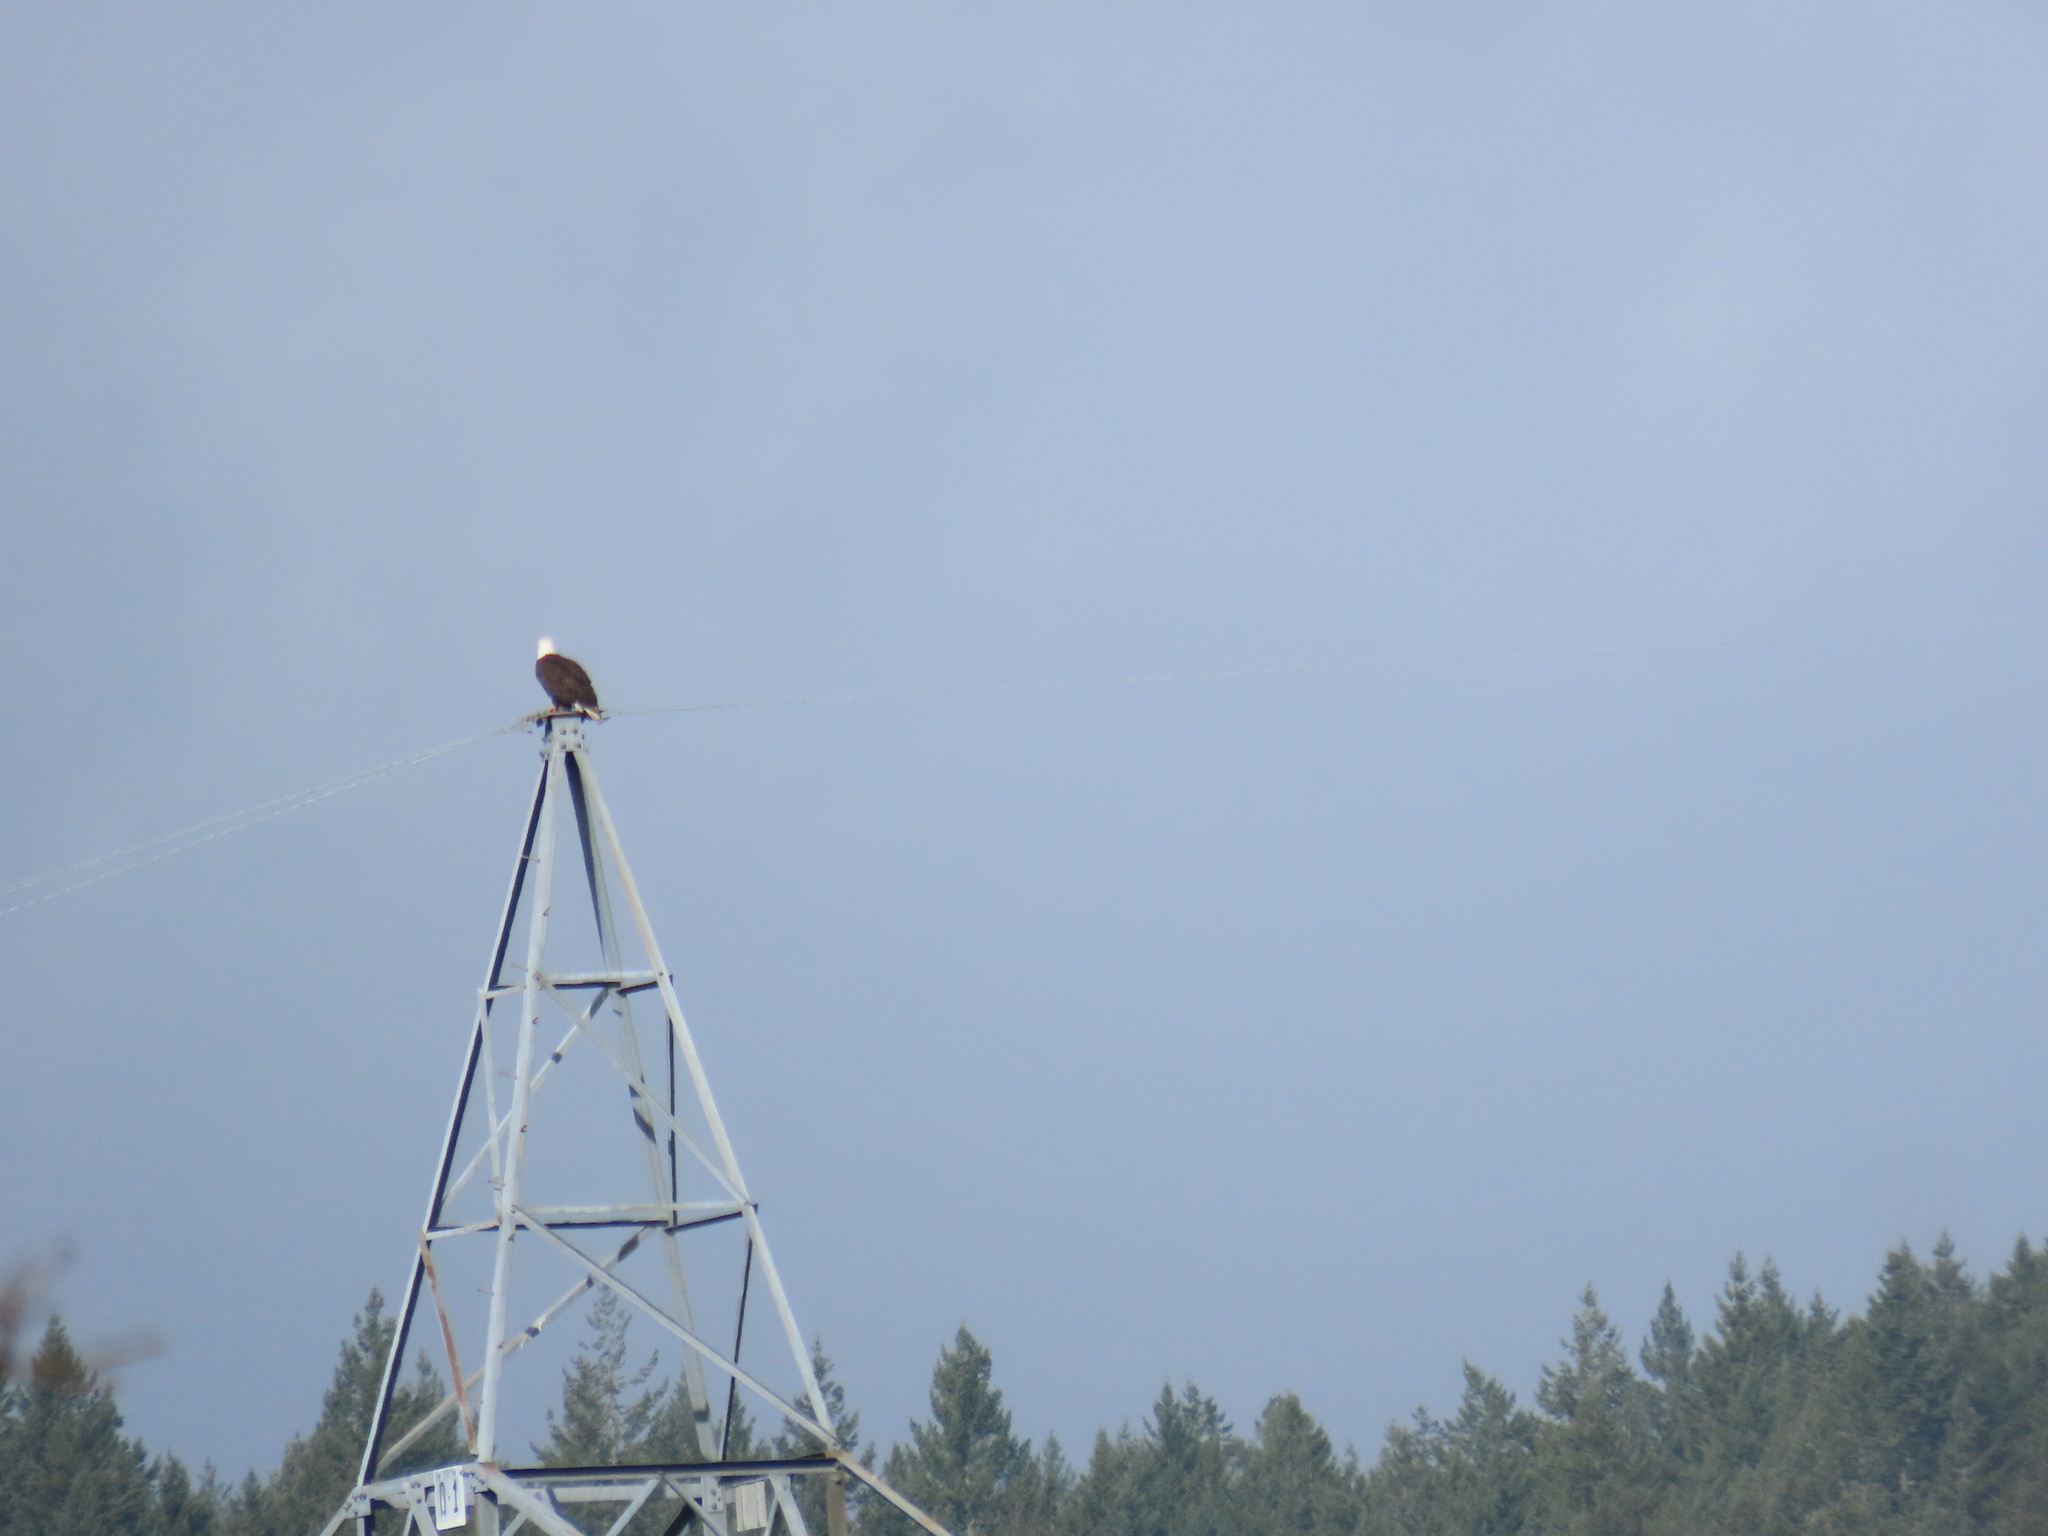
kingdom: Animalia
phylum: Chordata
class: Aves
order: Accipitriformes
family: Accipitridae
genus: Haliaeetus
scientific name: Haliaeetus leucocephalus
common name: Bald eagle
